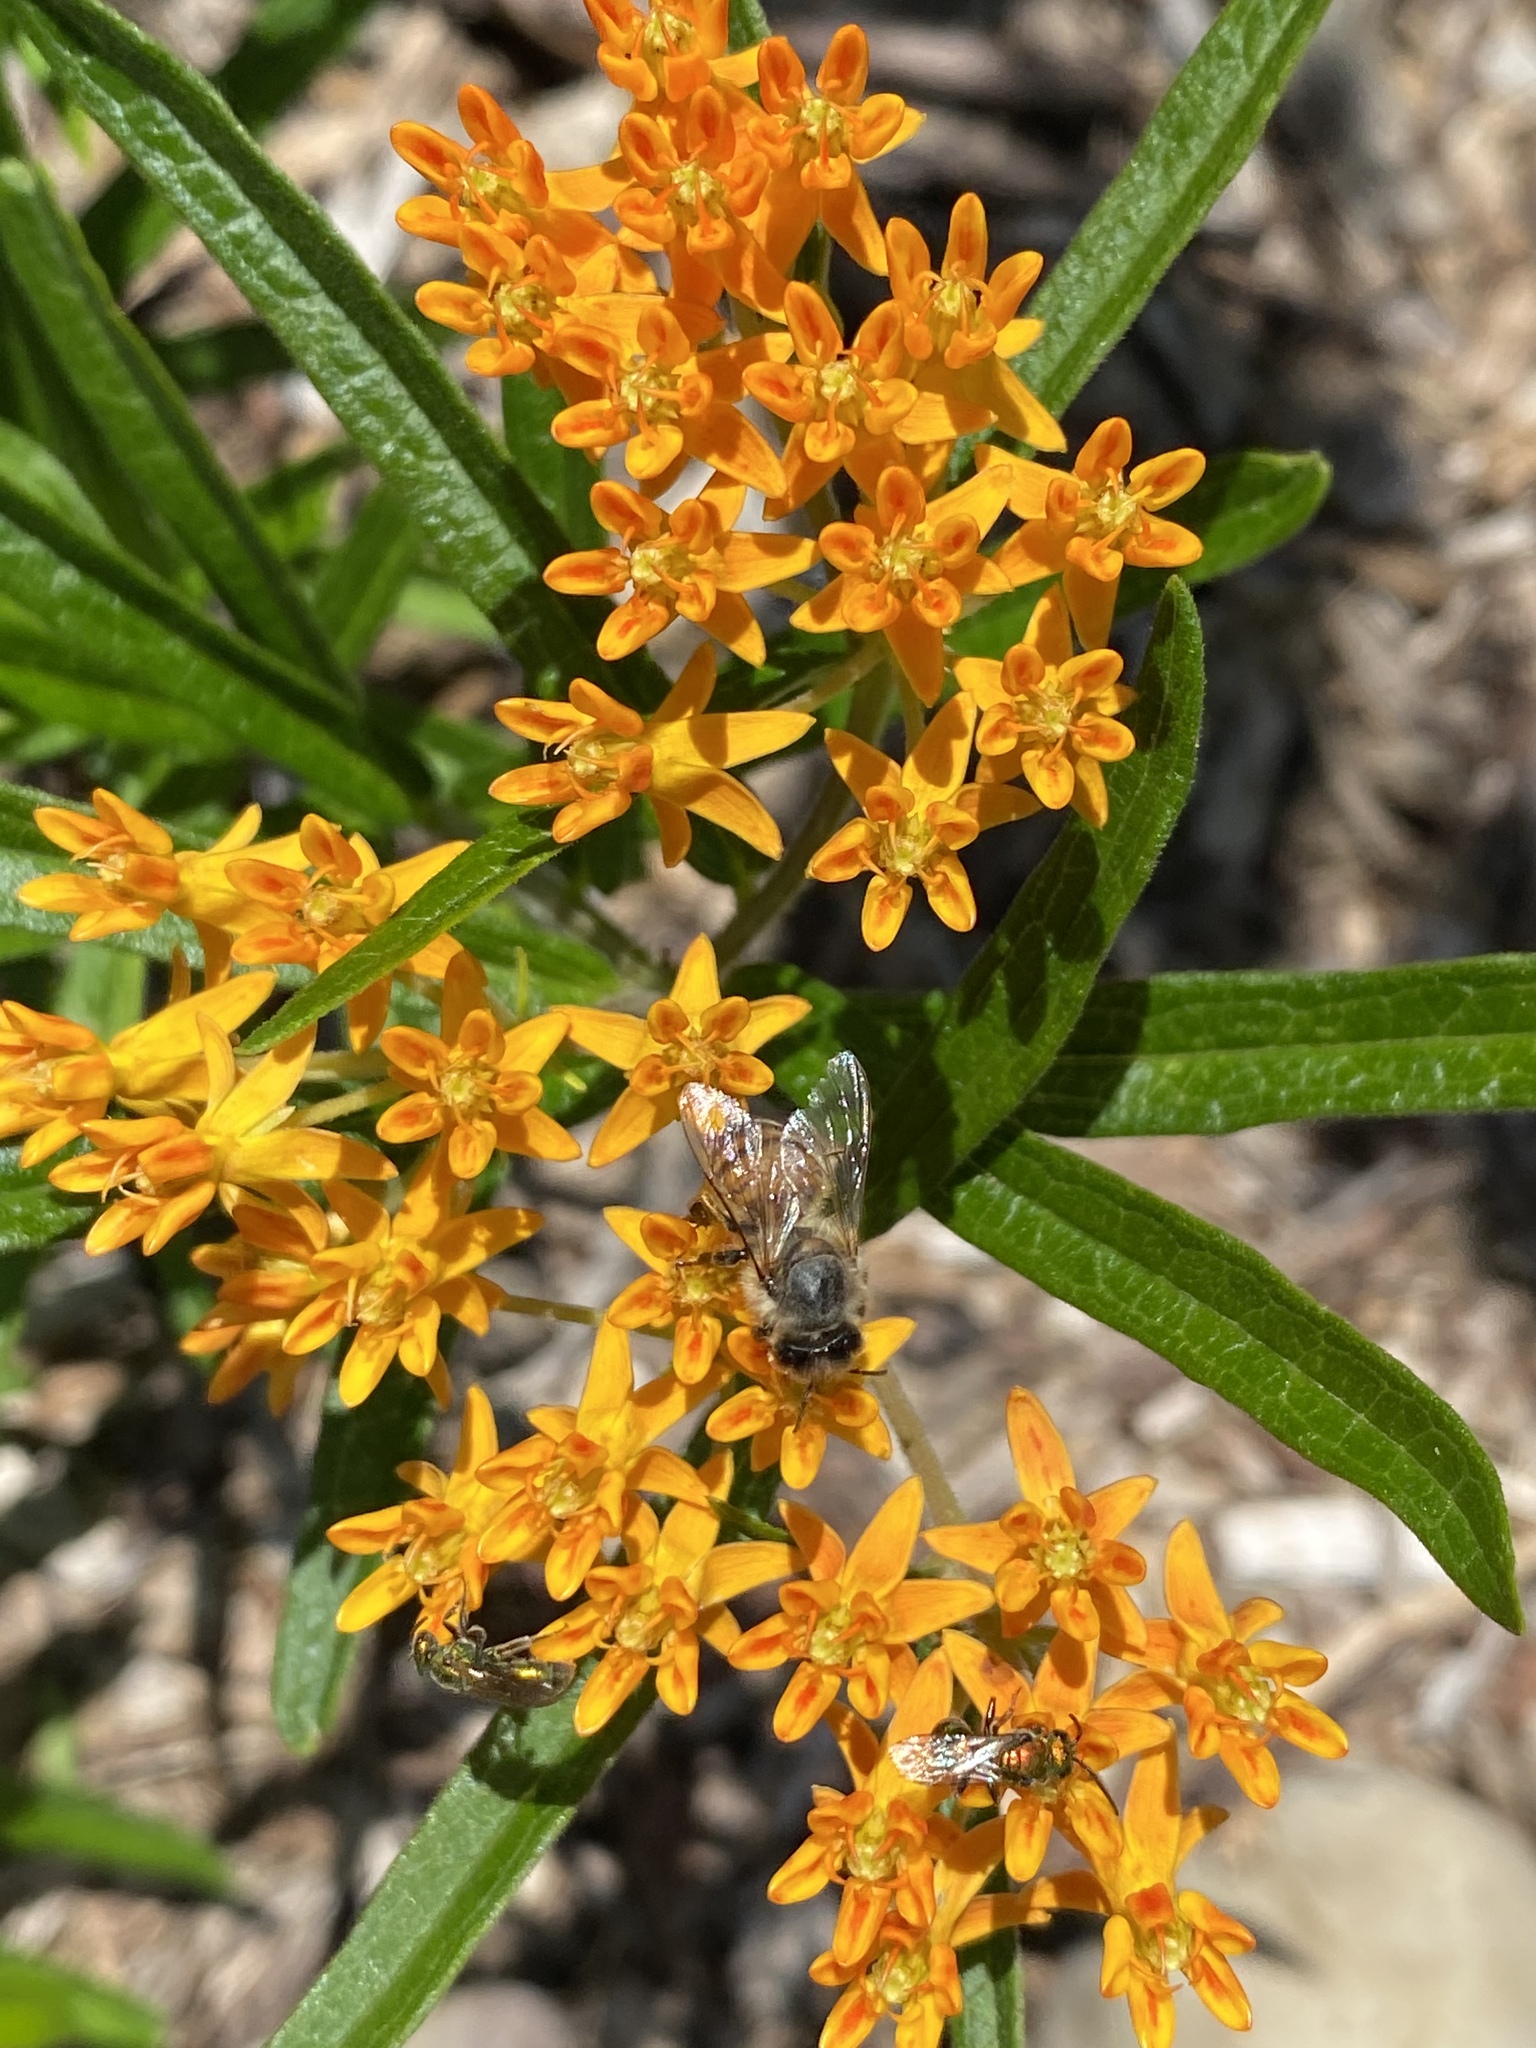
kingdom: Animalia
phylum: Arthropoda
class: Insecta
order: Hymenoptera
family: Apidae
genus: Apis
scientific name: Apis mellifera
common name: Honey bee
